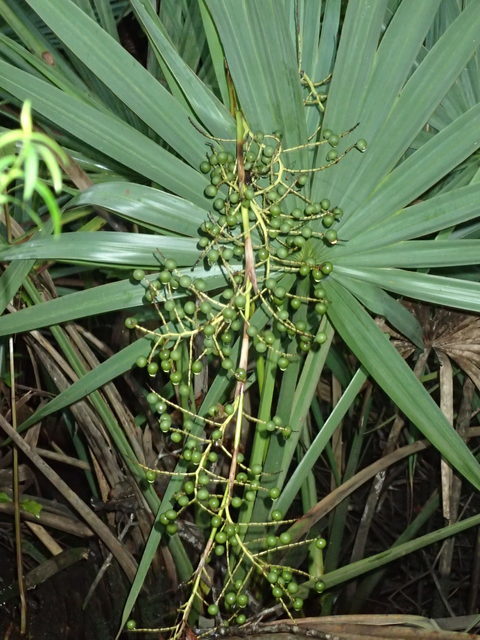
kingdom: Plantae
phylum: Tracheophyta
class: Liliopsida
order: Arecales
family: Arecaceae
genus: Sabal
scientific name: Sabal minor
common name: Dwarf palmetto
